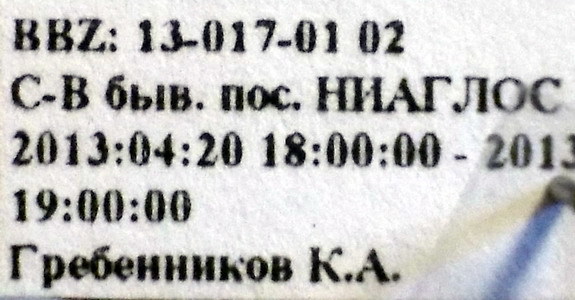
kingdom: Animalia
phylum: Arthropoda
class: Insecta
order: Hemiptera
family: Nabidae
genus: Prostemma
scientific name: Prostemma sanguineum
